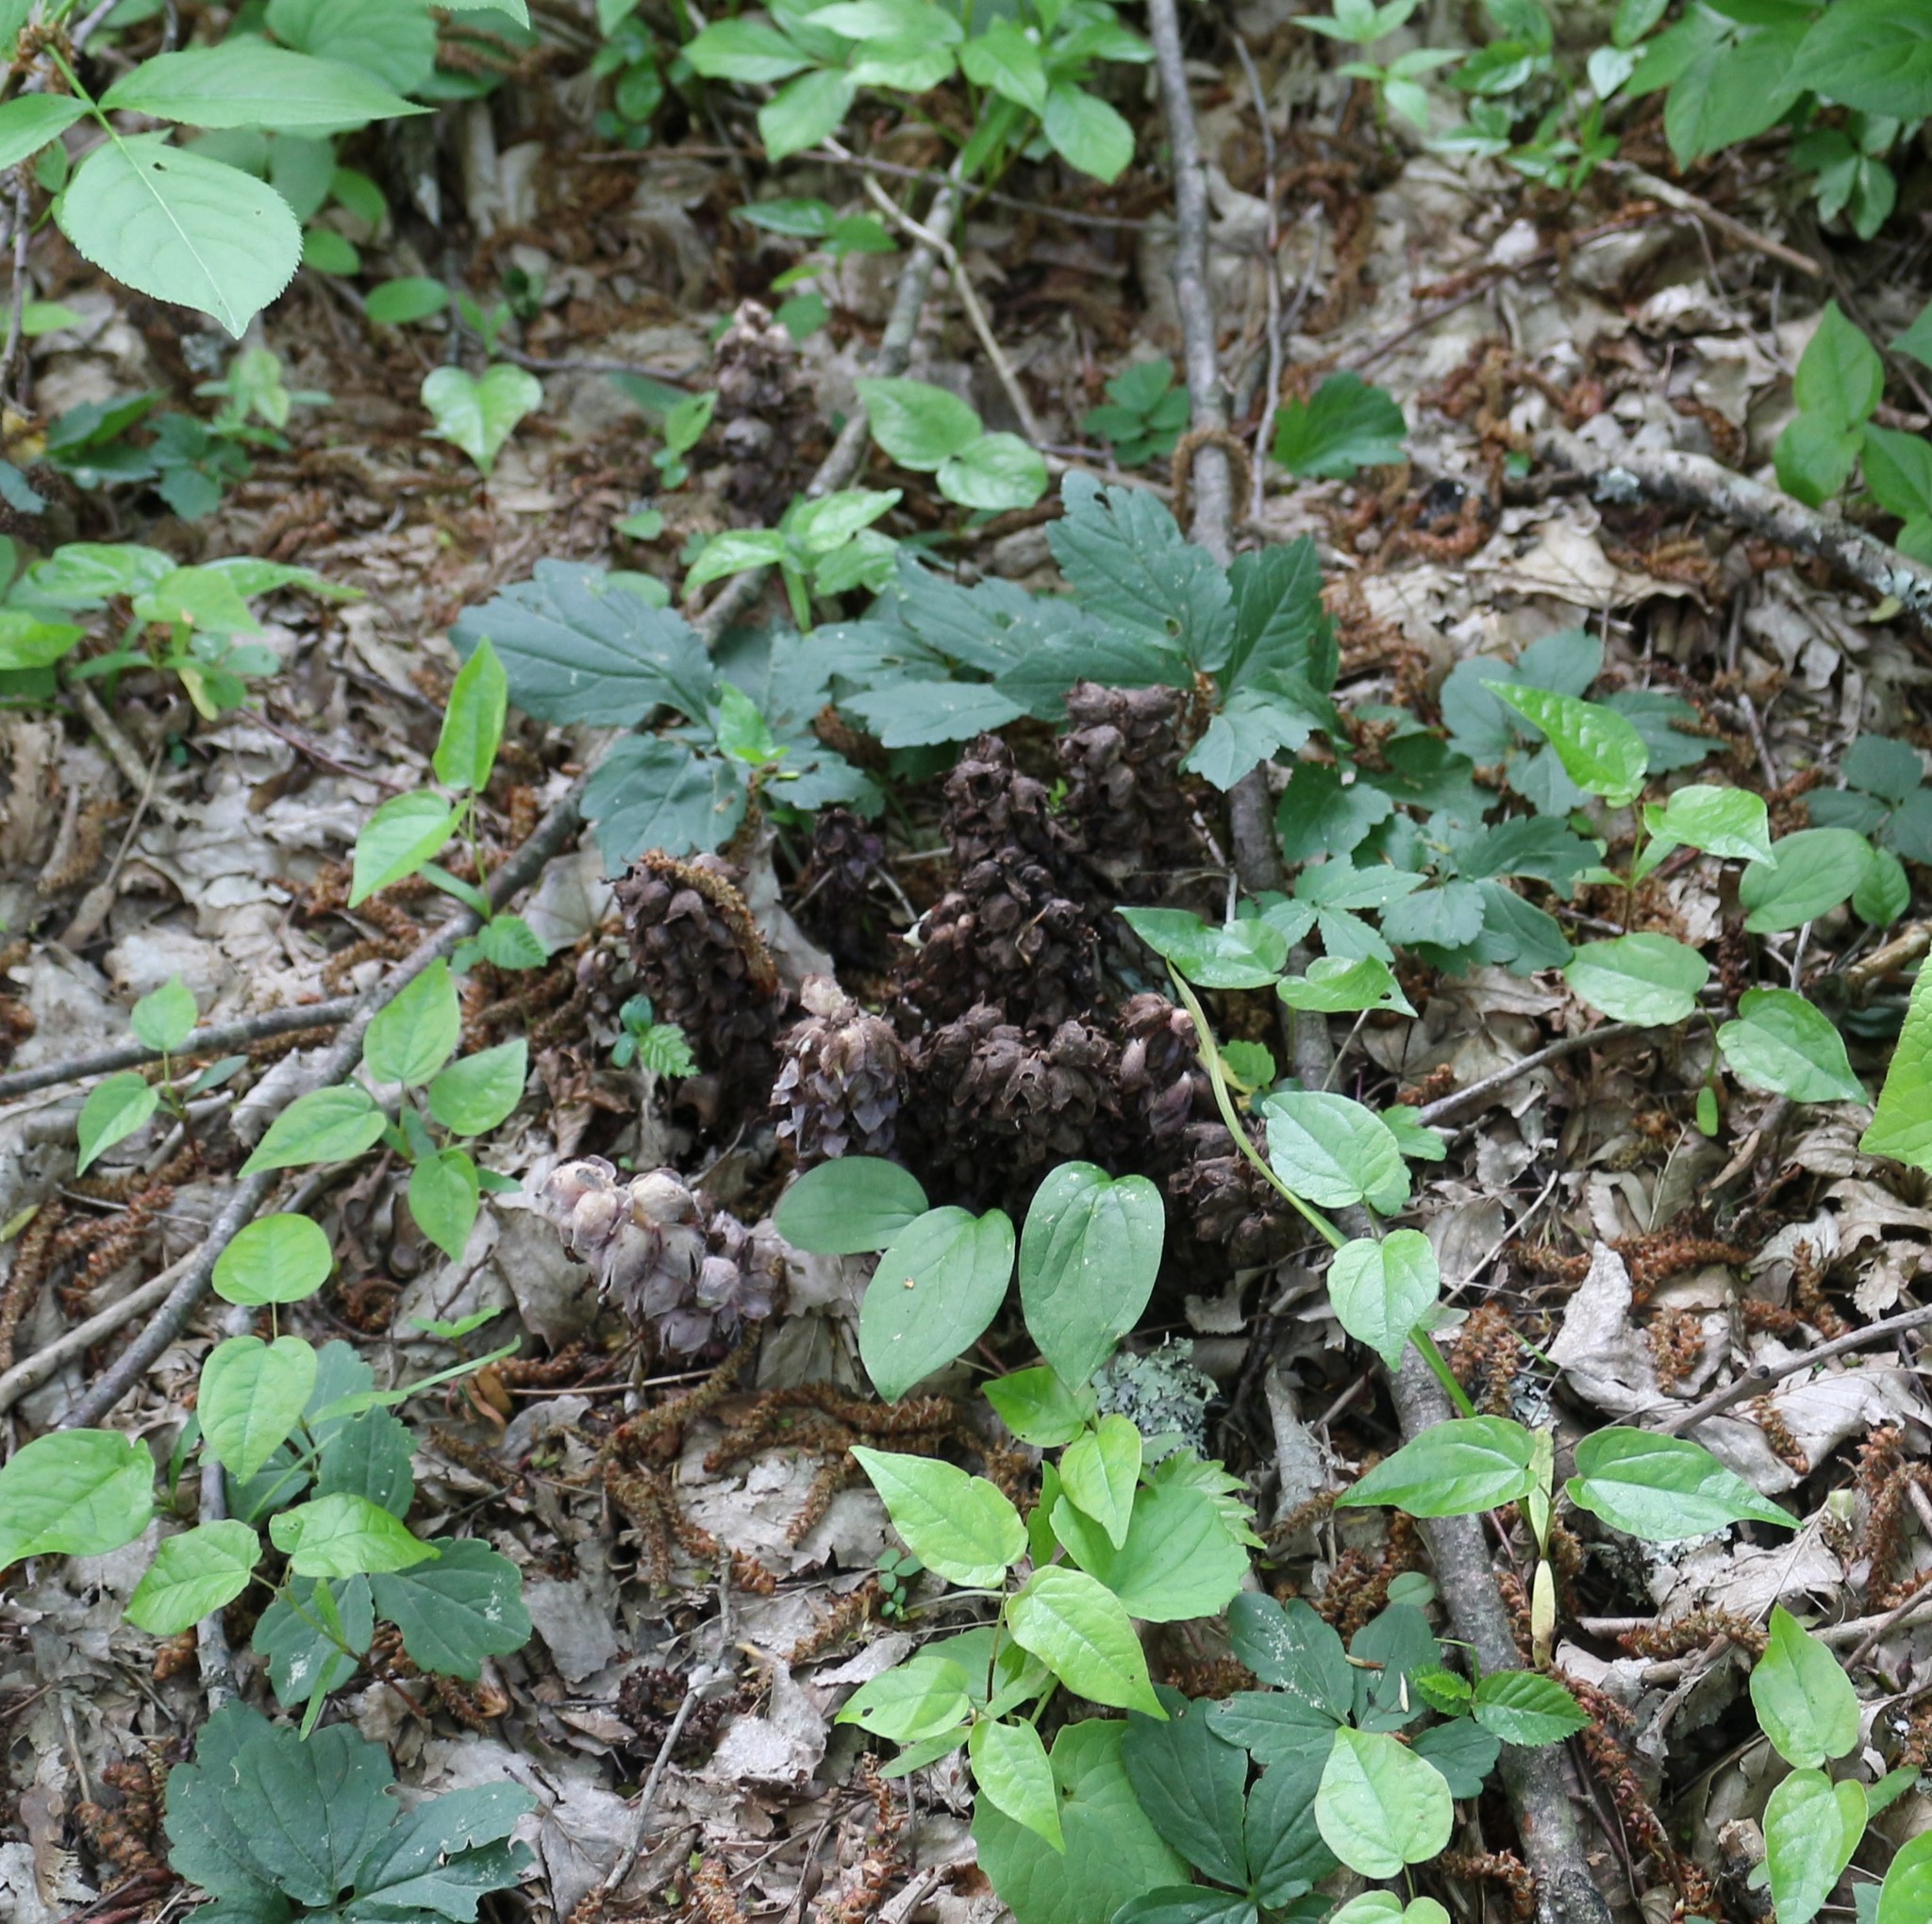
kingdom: Plantae
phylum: Tracheophyta
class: Magnoliopsida
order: Lamiales
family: Orobanchaceae
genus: Lathraea
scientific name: Lathraea squamaria
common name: Toothwort
